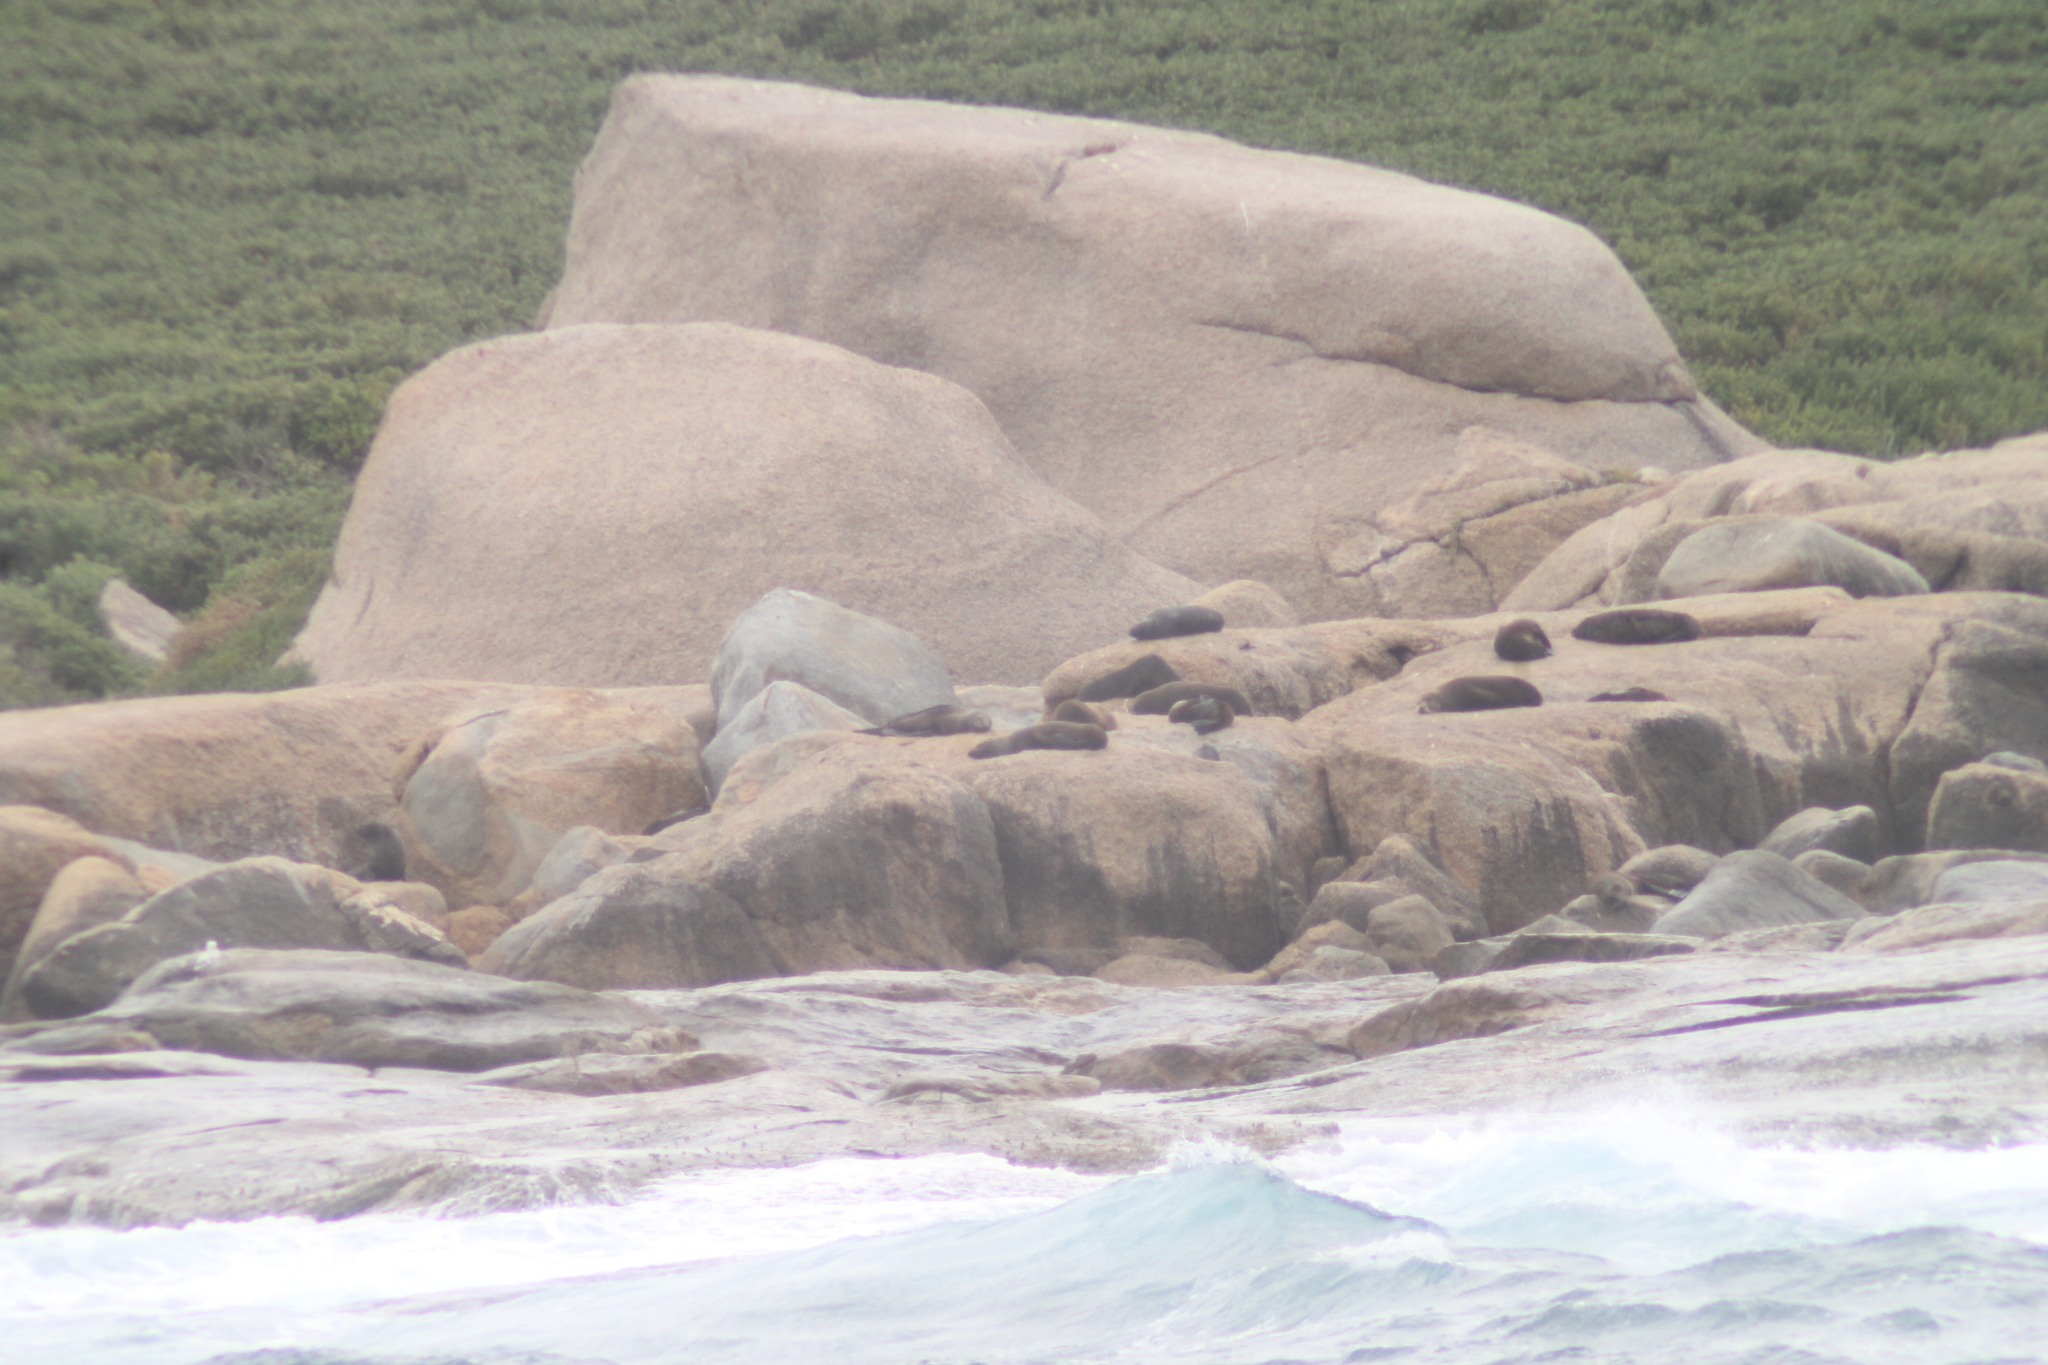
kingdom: Animalia
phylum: Chordata
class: Mammalia
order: Carnivora
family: Otariidae
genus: Arctocephalus
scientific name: Arctocephalus forsteri
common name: New zealand fur seal
